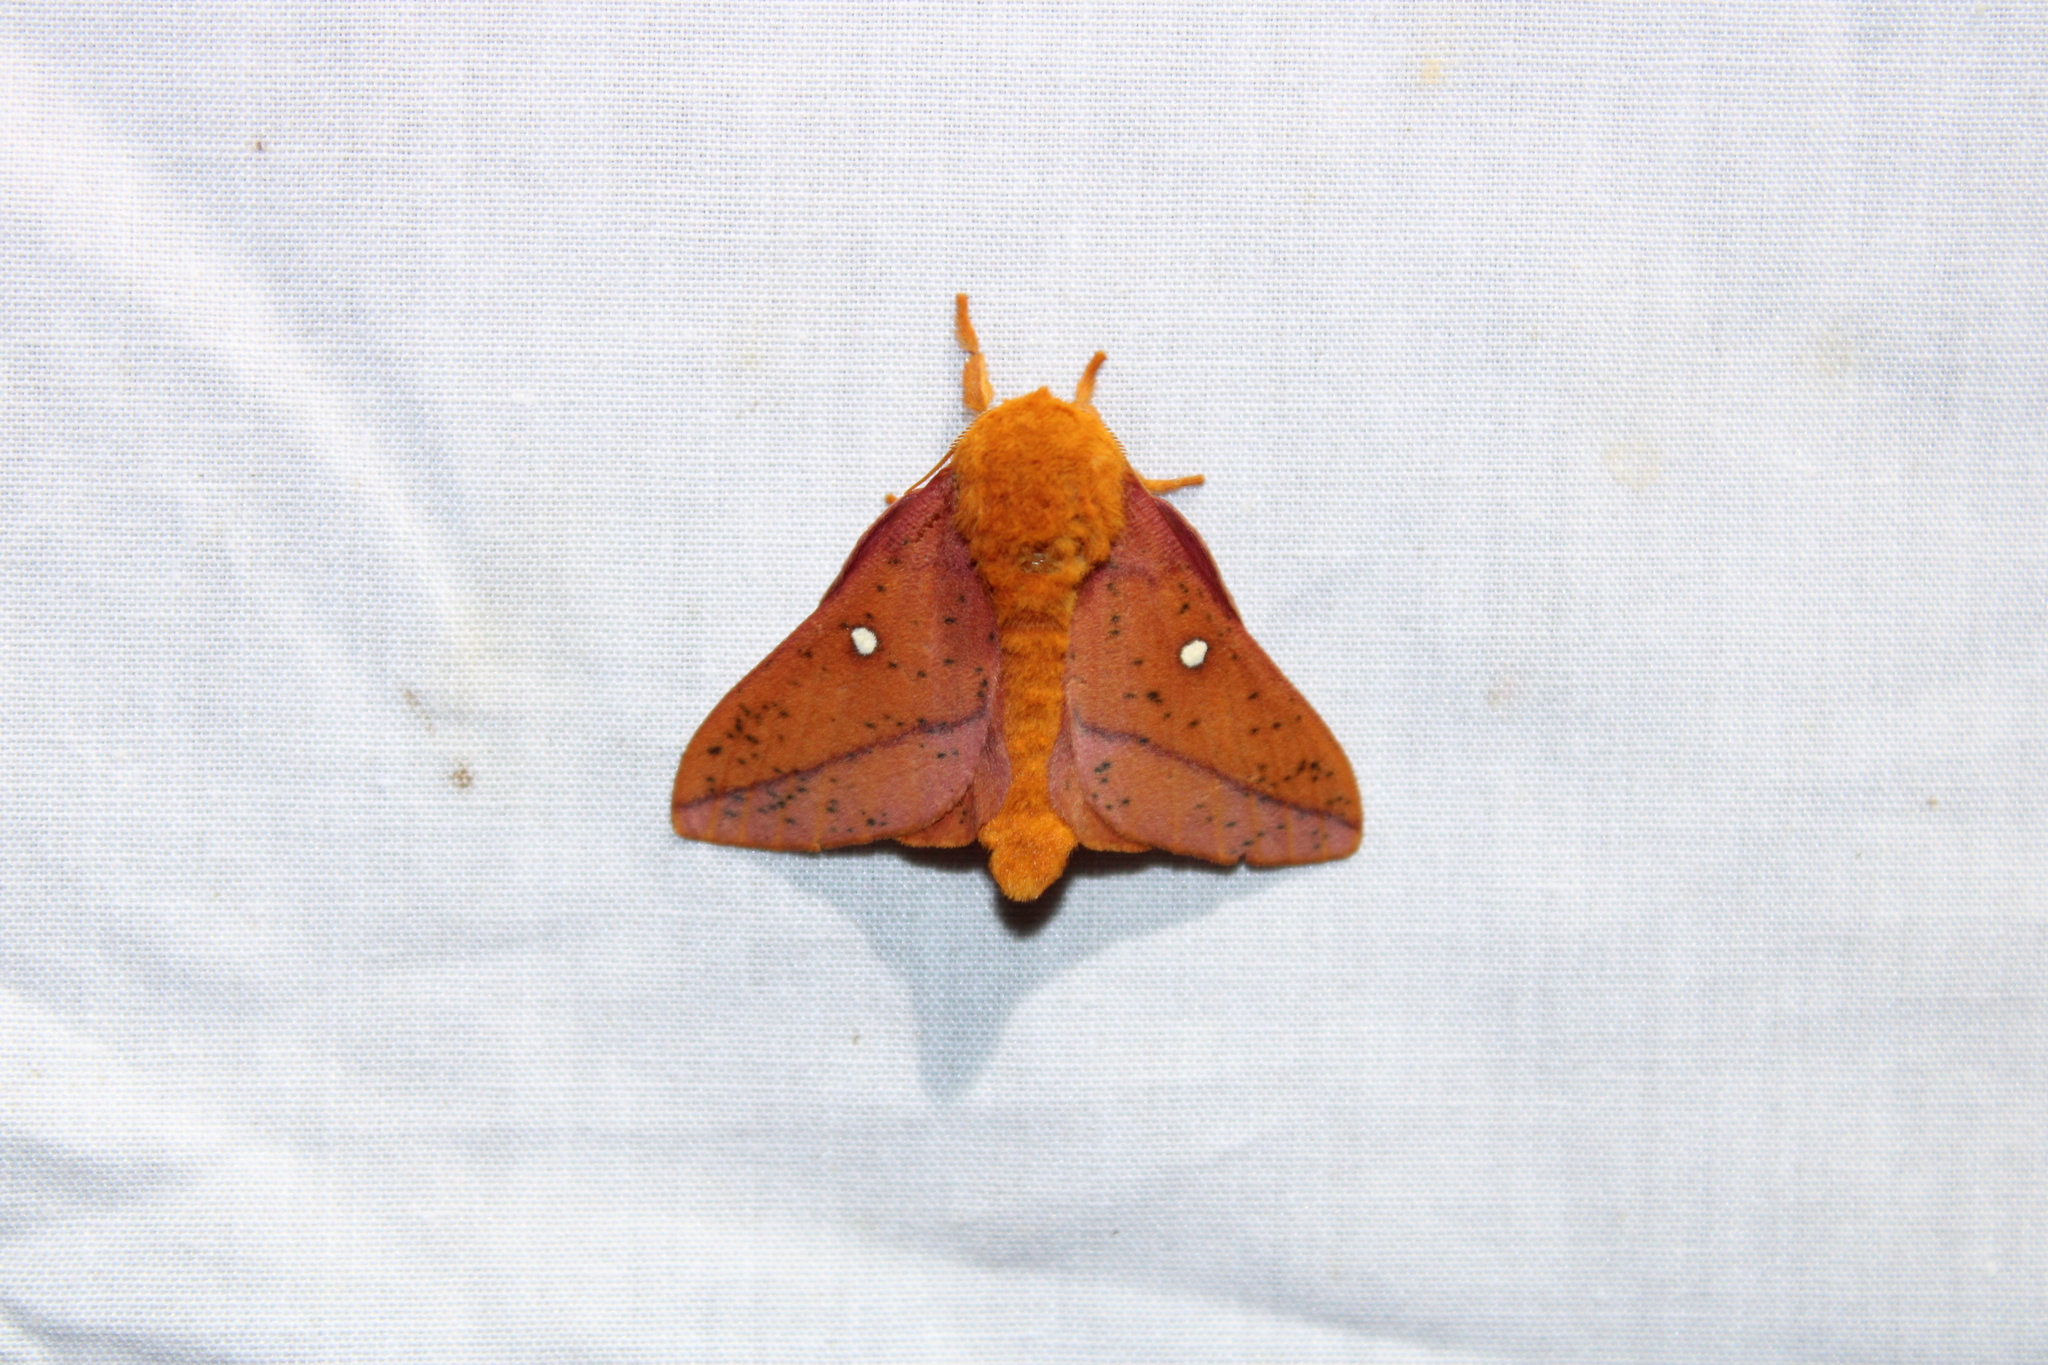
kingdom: Animalia
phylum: Arthropoda
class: Insecta
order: Lepidoptera
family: Saturniidae
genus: Anisota
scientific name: Anisota stigma
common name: Spiny oakworm moth
